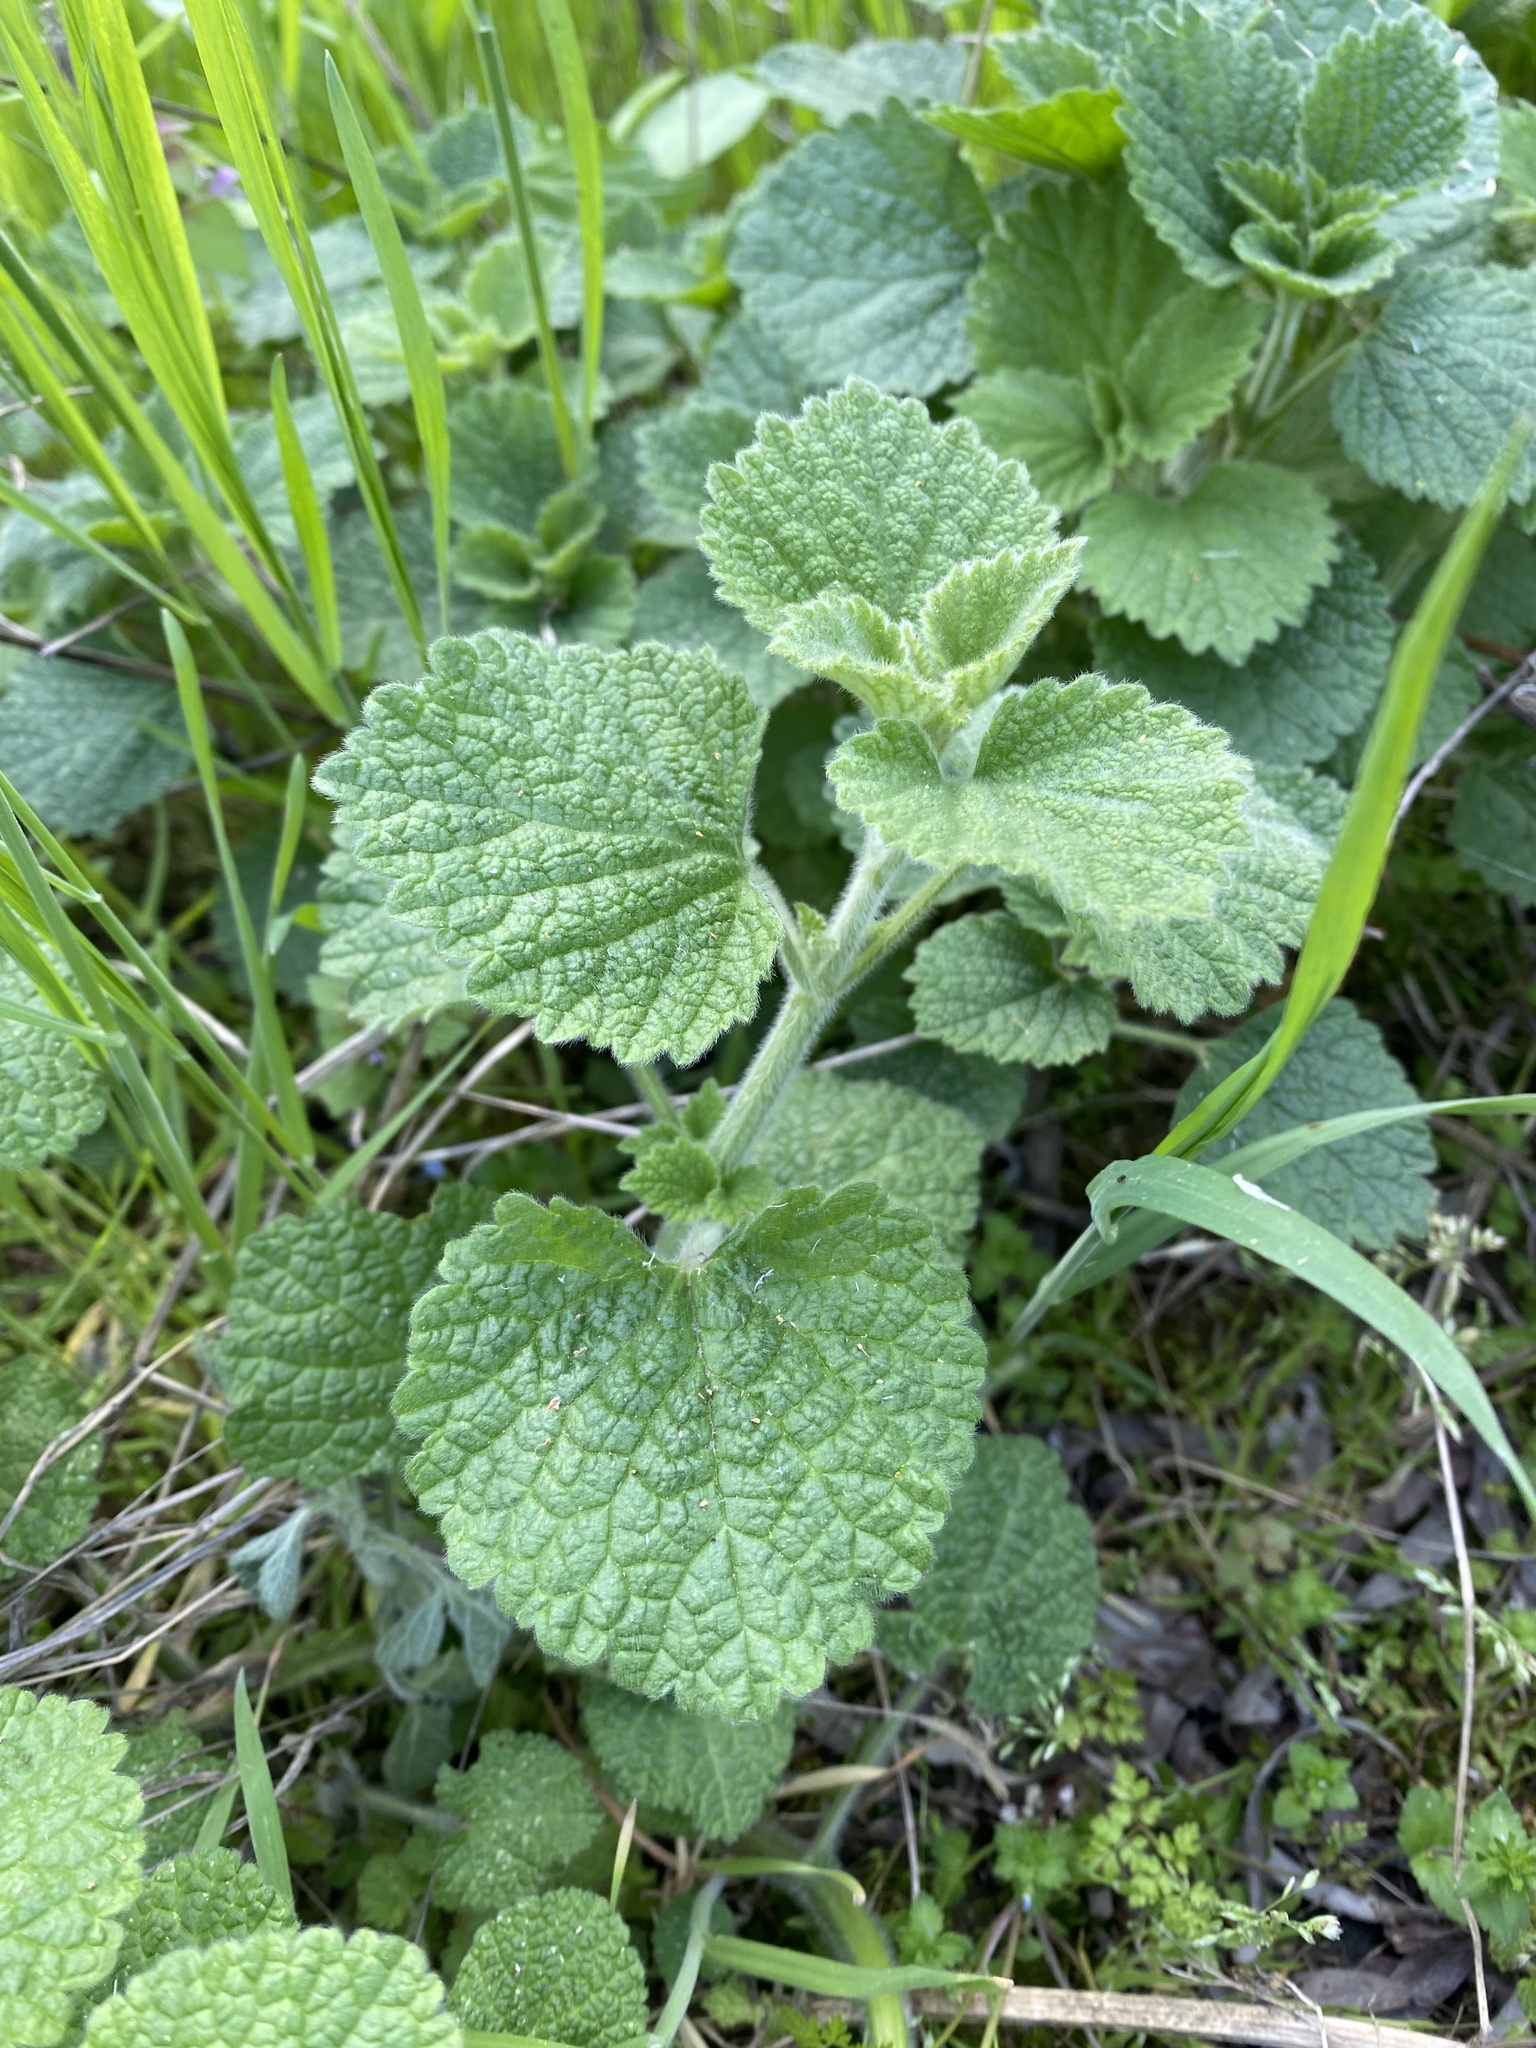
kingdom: Plantae
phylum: Tracheophyta
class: Magnoliopsida
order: Lamiales
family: Lamiaceae
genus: Ballota
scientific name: Ballota nigra
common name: Black horehound
